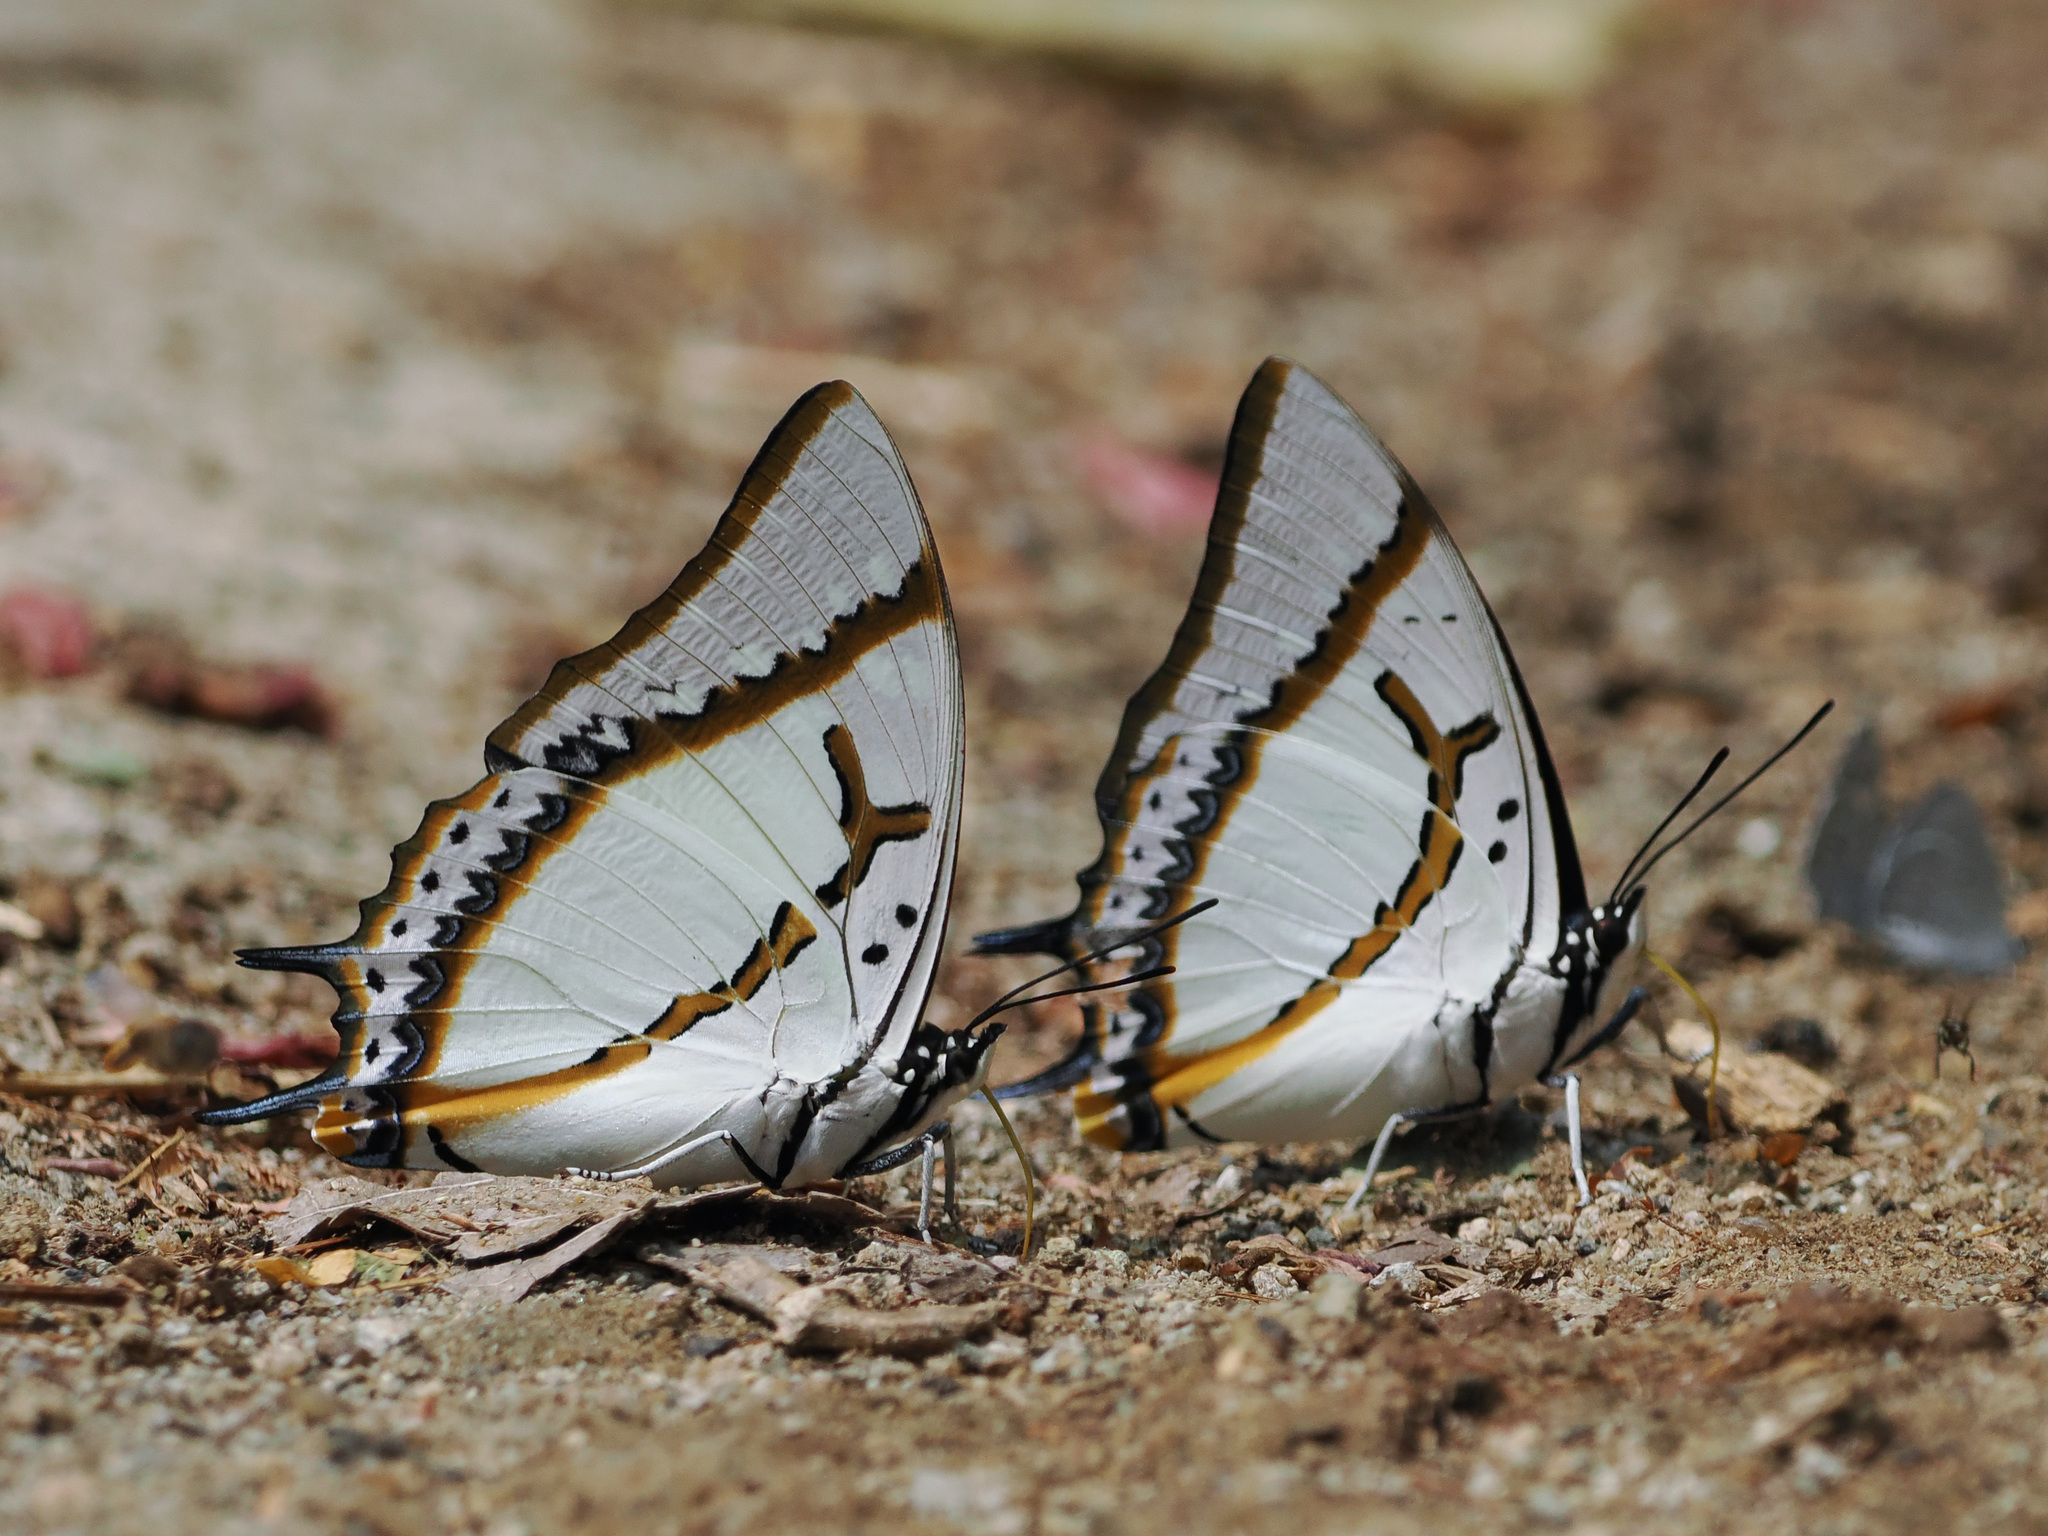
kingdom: Animalia
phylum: Arthropoda
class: Insecta
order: Lepidoptera
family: Nymphalidae
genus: Polyura
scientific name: Polyura eudamippus
